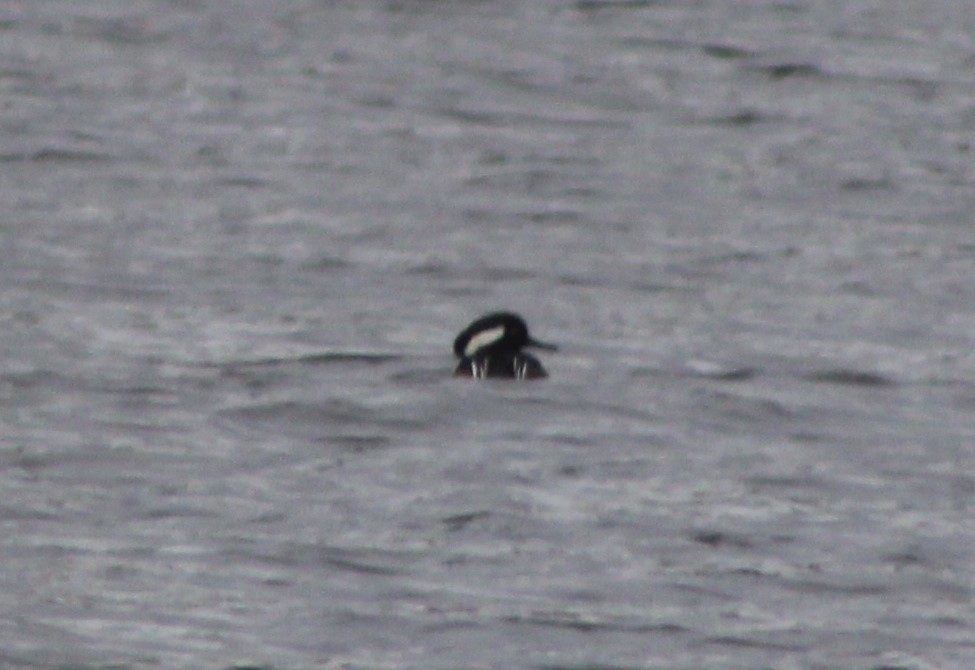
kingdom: Animalia
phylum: Chordata
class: Aves
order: Anseriformes
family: Anatidae
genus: Lophodytes
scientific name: Lophodytes cucullatus
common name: Hooded merganser
